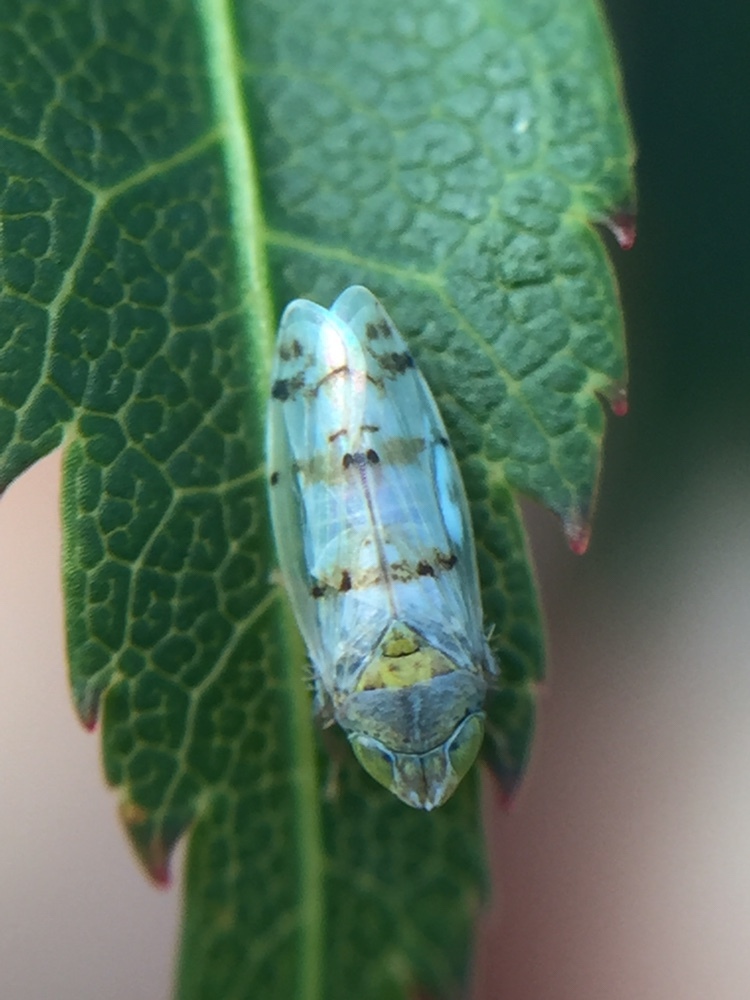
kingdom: Animalia
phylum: Arthropoda
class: Insecta
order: Hemiptera
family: Cicadellidae
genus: Japananus
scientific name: Japananus hyalinus
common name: The japanese maple leafhopper
